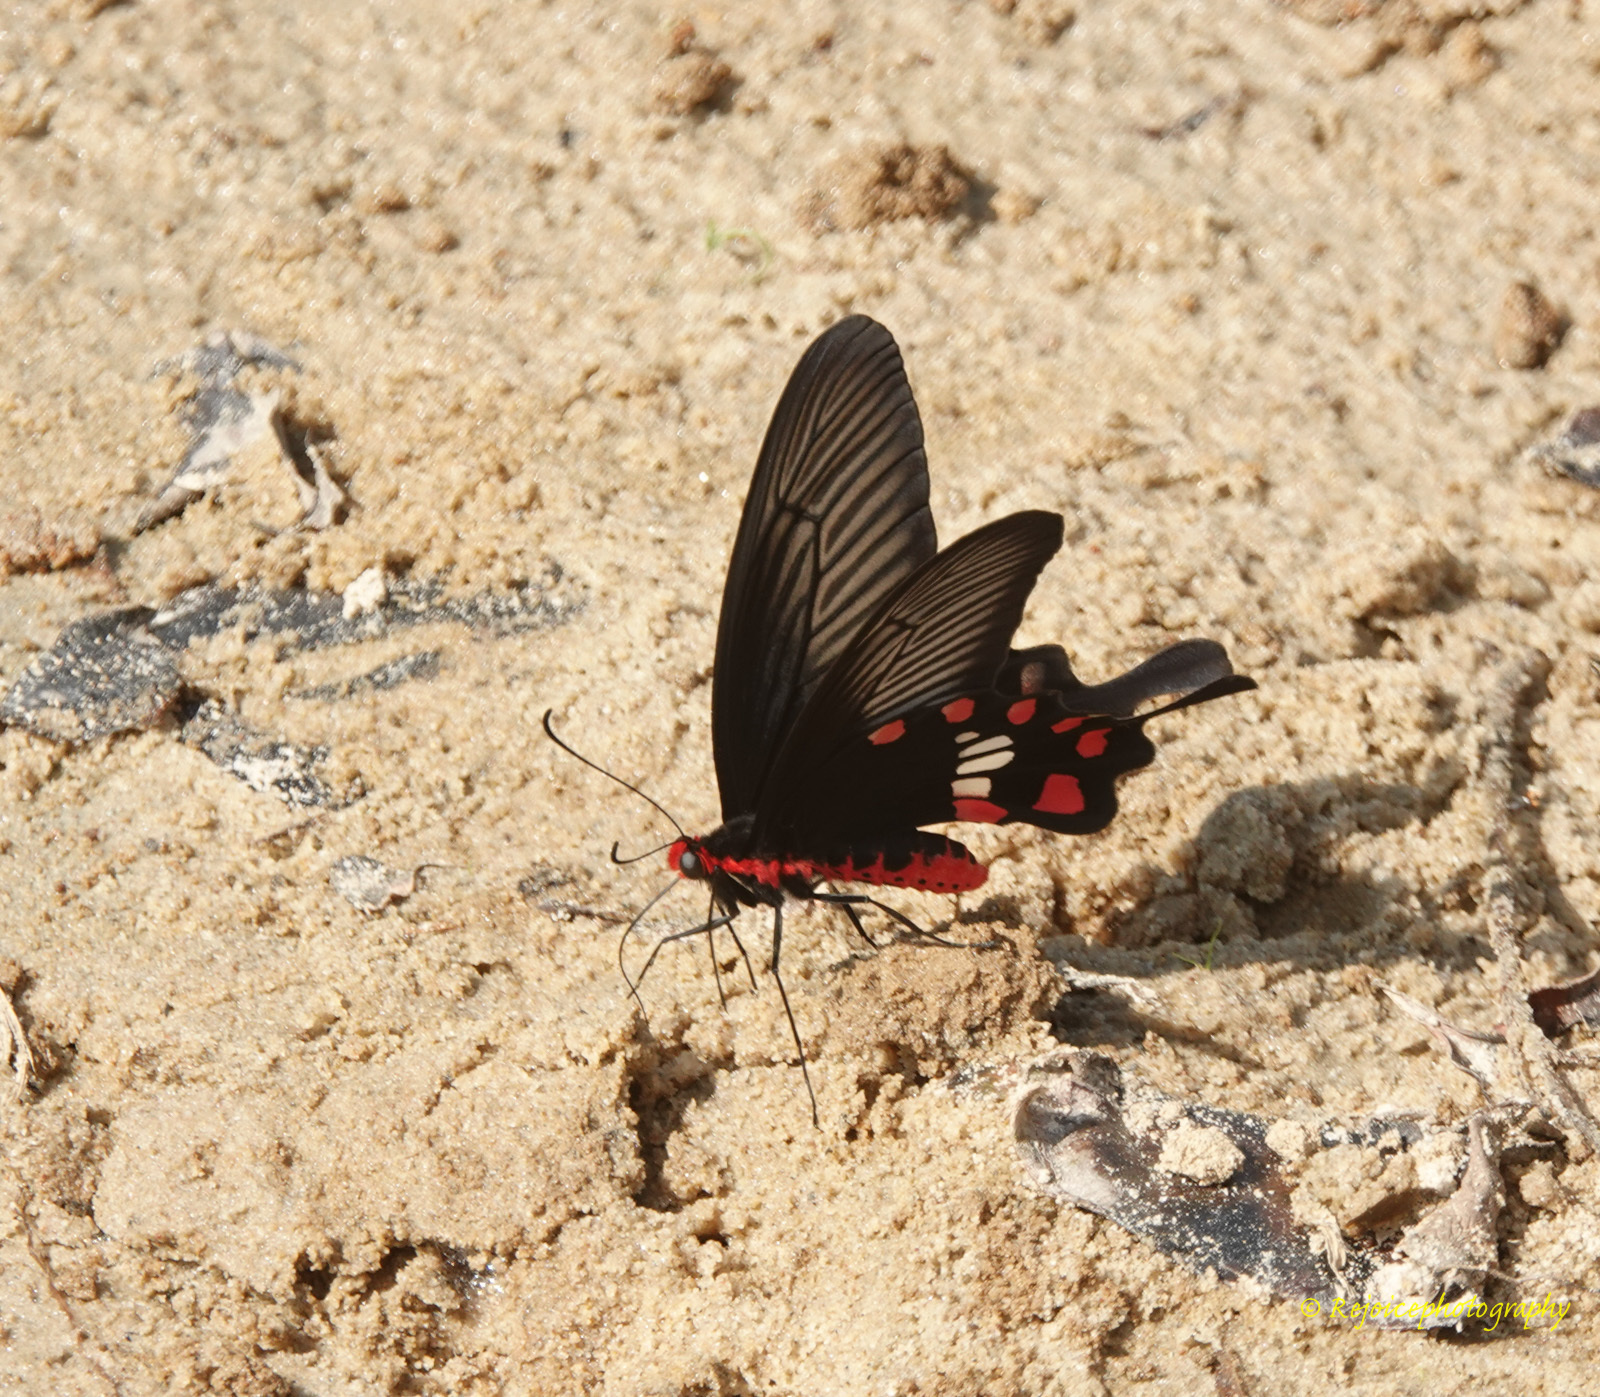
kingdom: Animalia
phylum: Arthropoda
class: Insecta
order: Lepidoptera
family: Papilionidae
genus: Pachliopta
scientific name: Pachliopta aristolochiae
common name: Common rose
